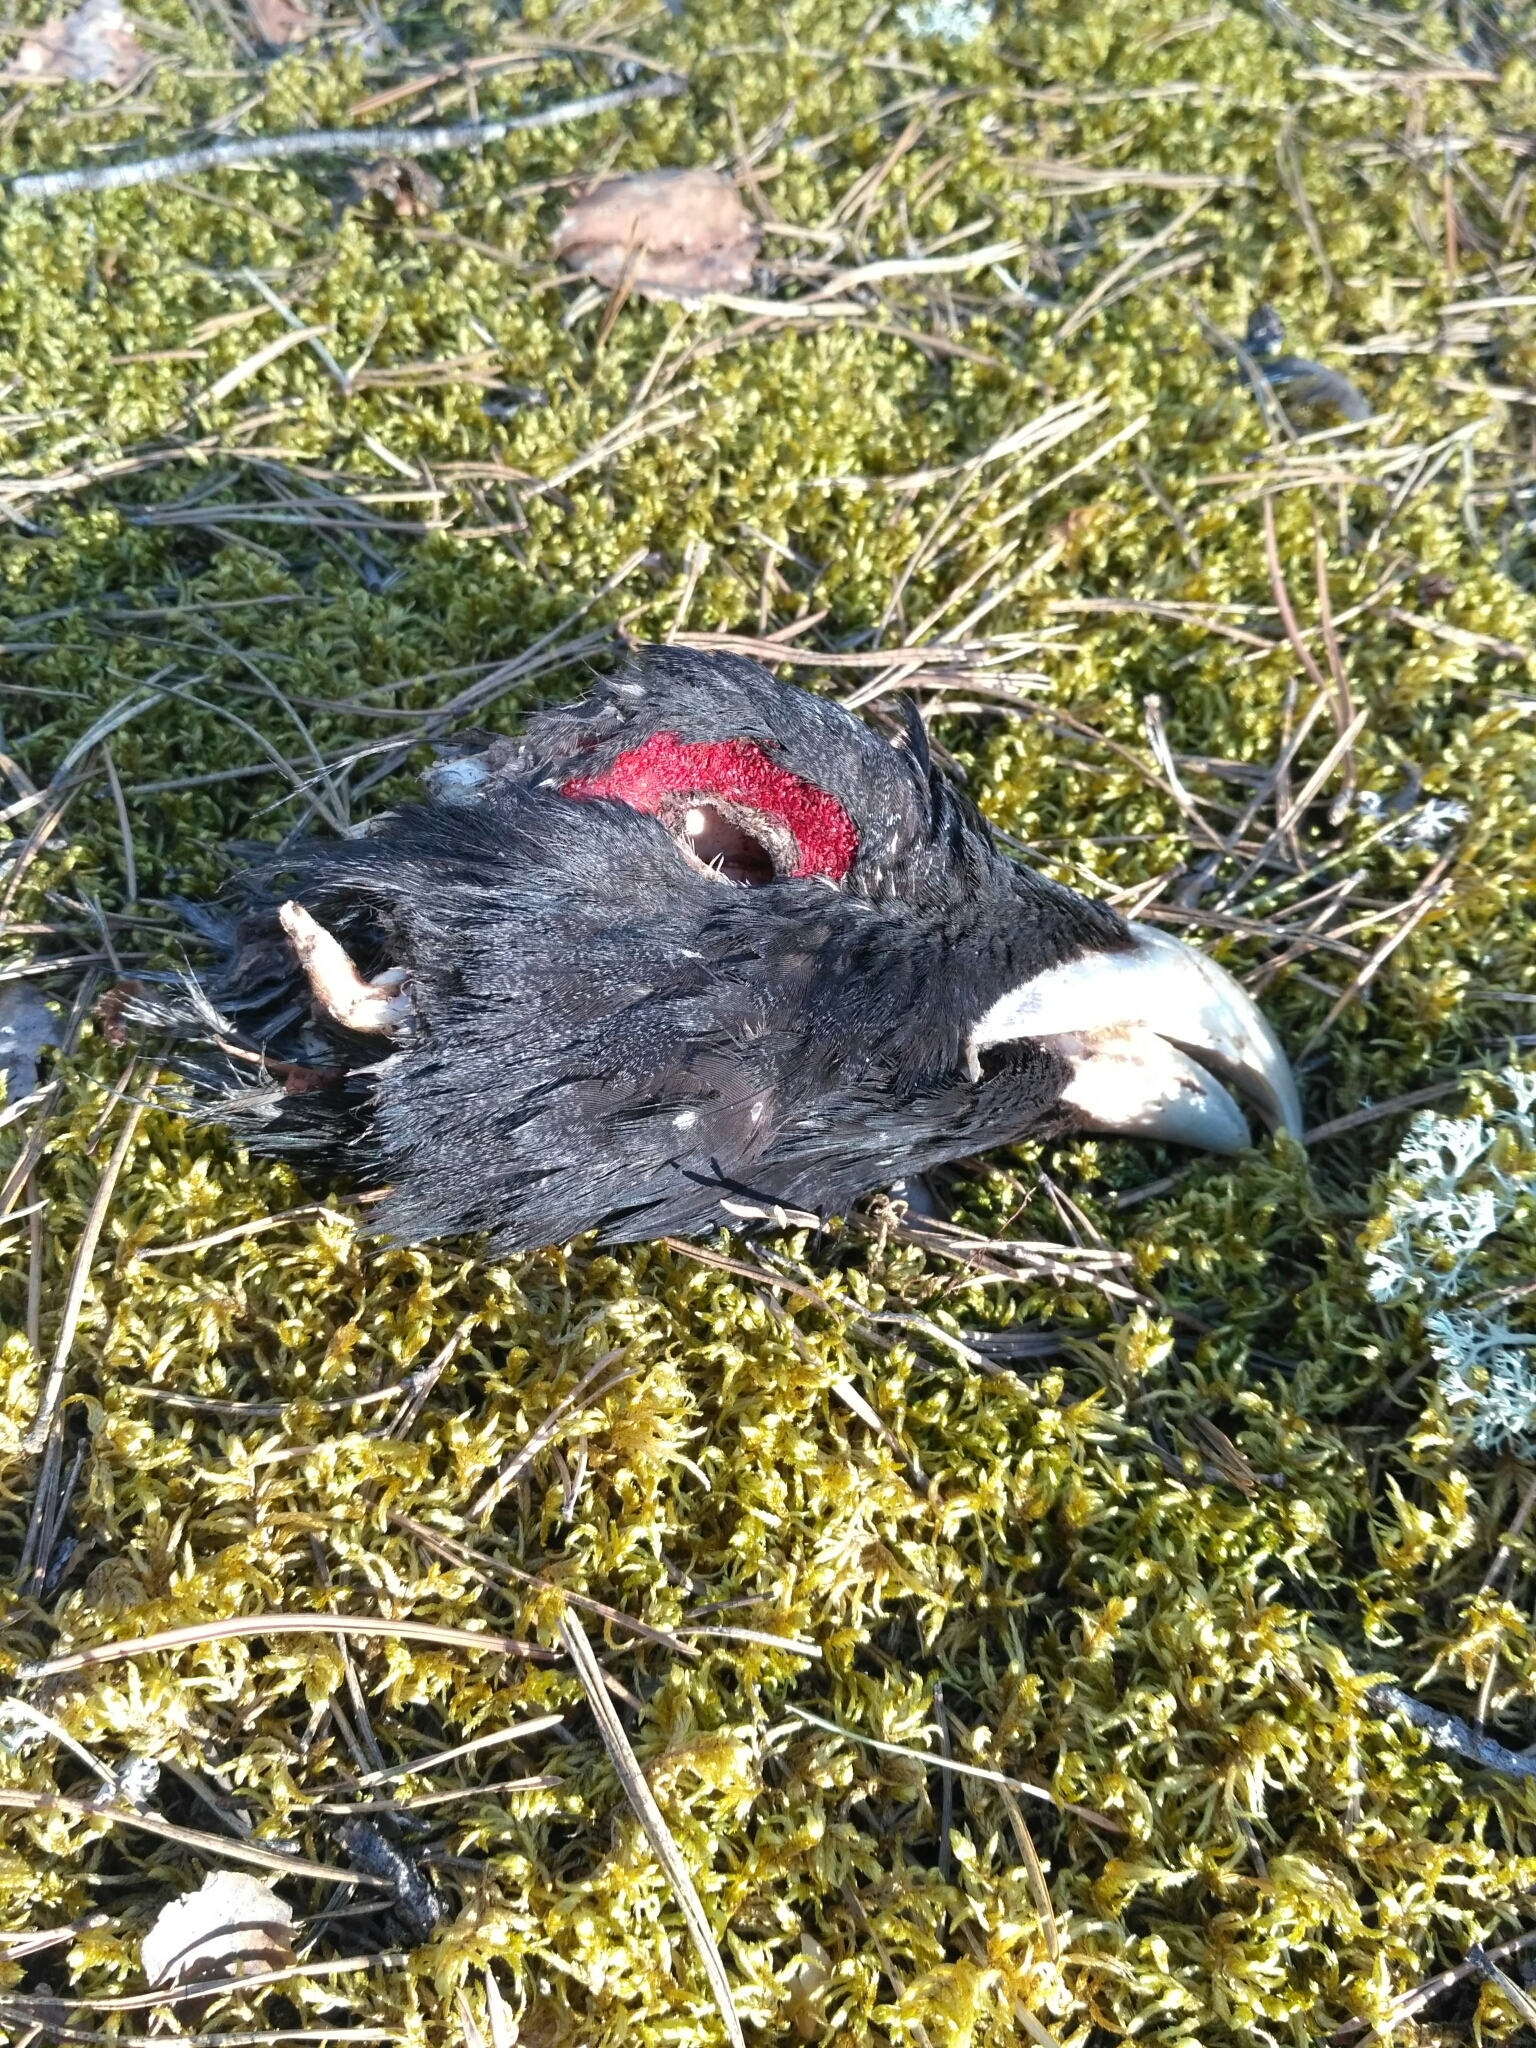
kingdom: Animalia
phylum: Chordata
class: Aves
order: Galliformes
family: Phasianidae
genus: Tetrao
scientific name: Tetrao urogallus
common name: Western capercaillie
